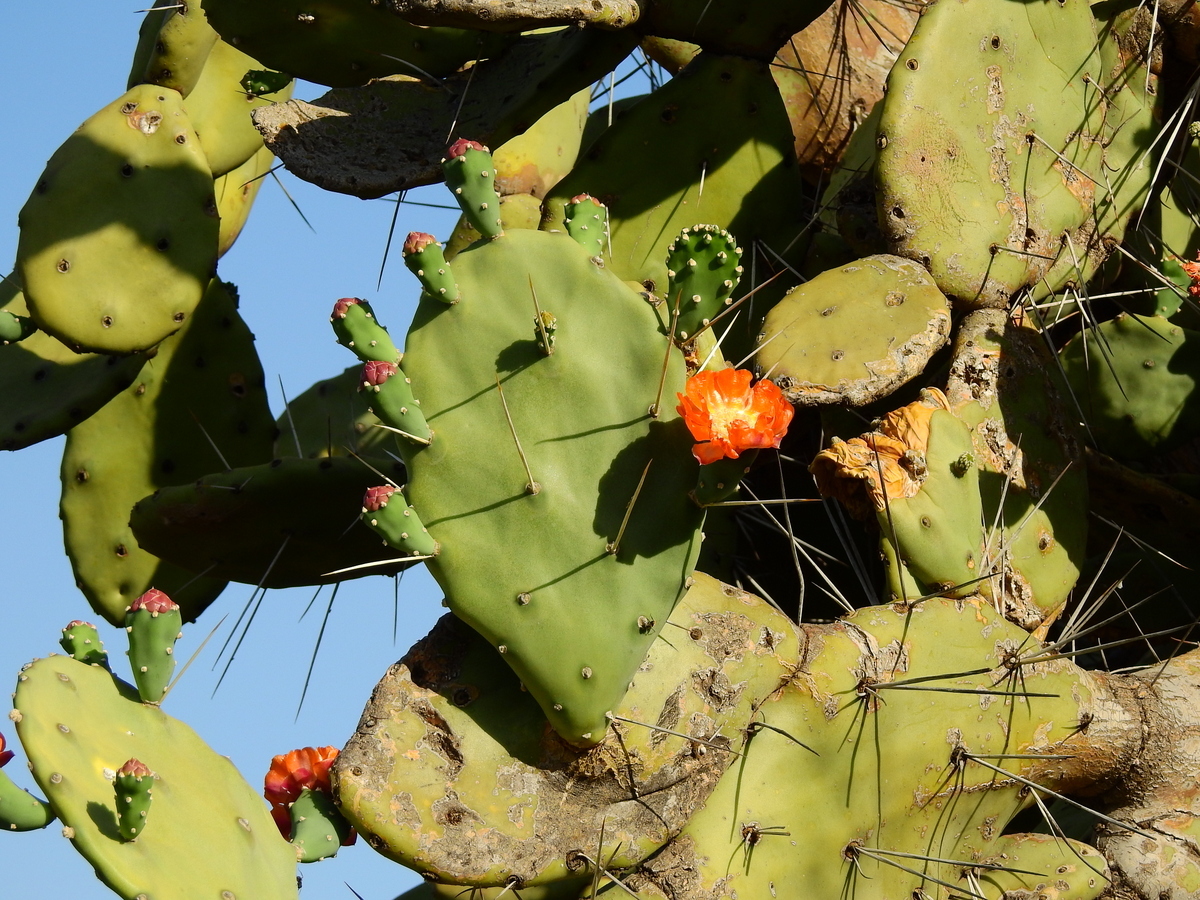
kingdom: Plantae
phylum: Tracheophyta
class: Magnoliopsida
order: Caryophyllales
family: Cactaceae
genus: Opuntia
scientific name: Opuntia quimilo
